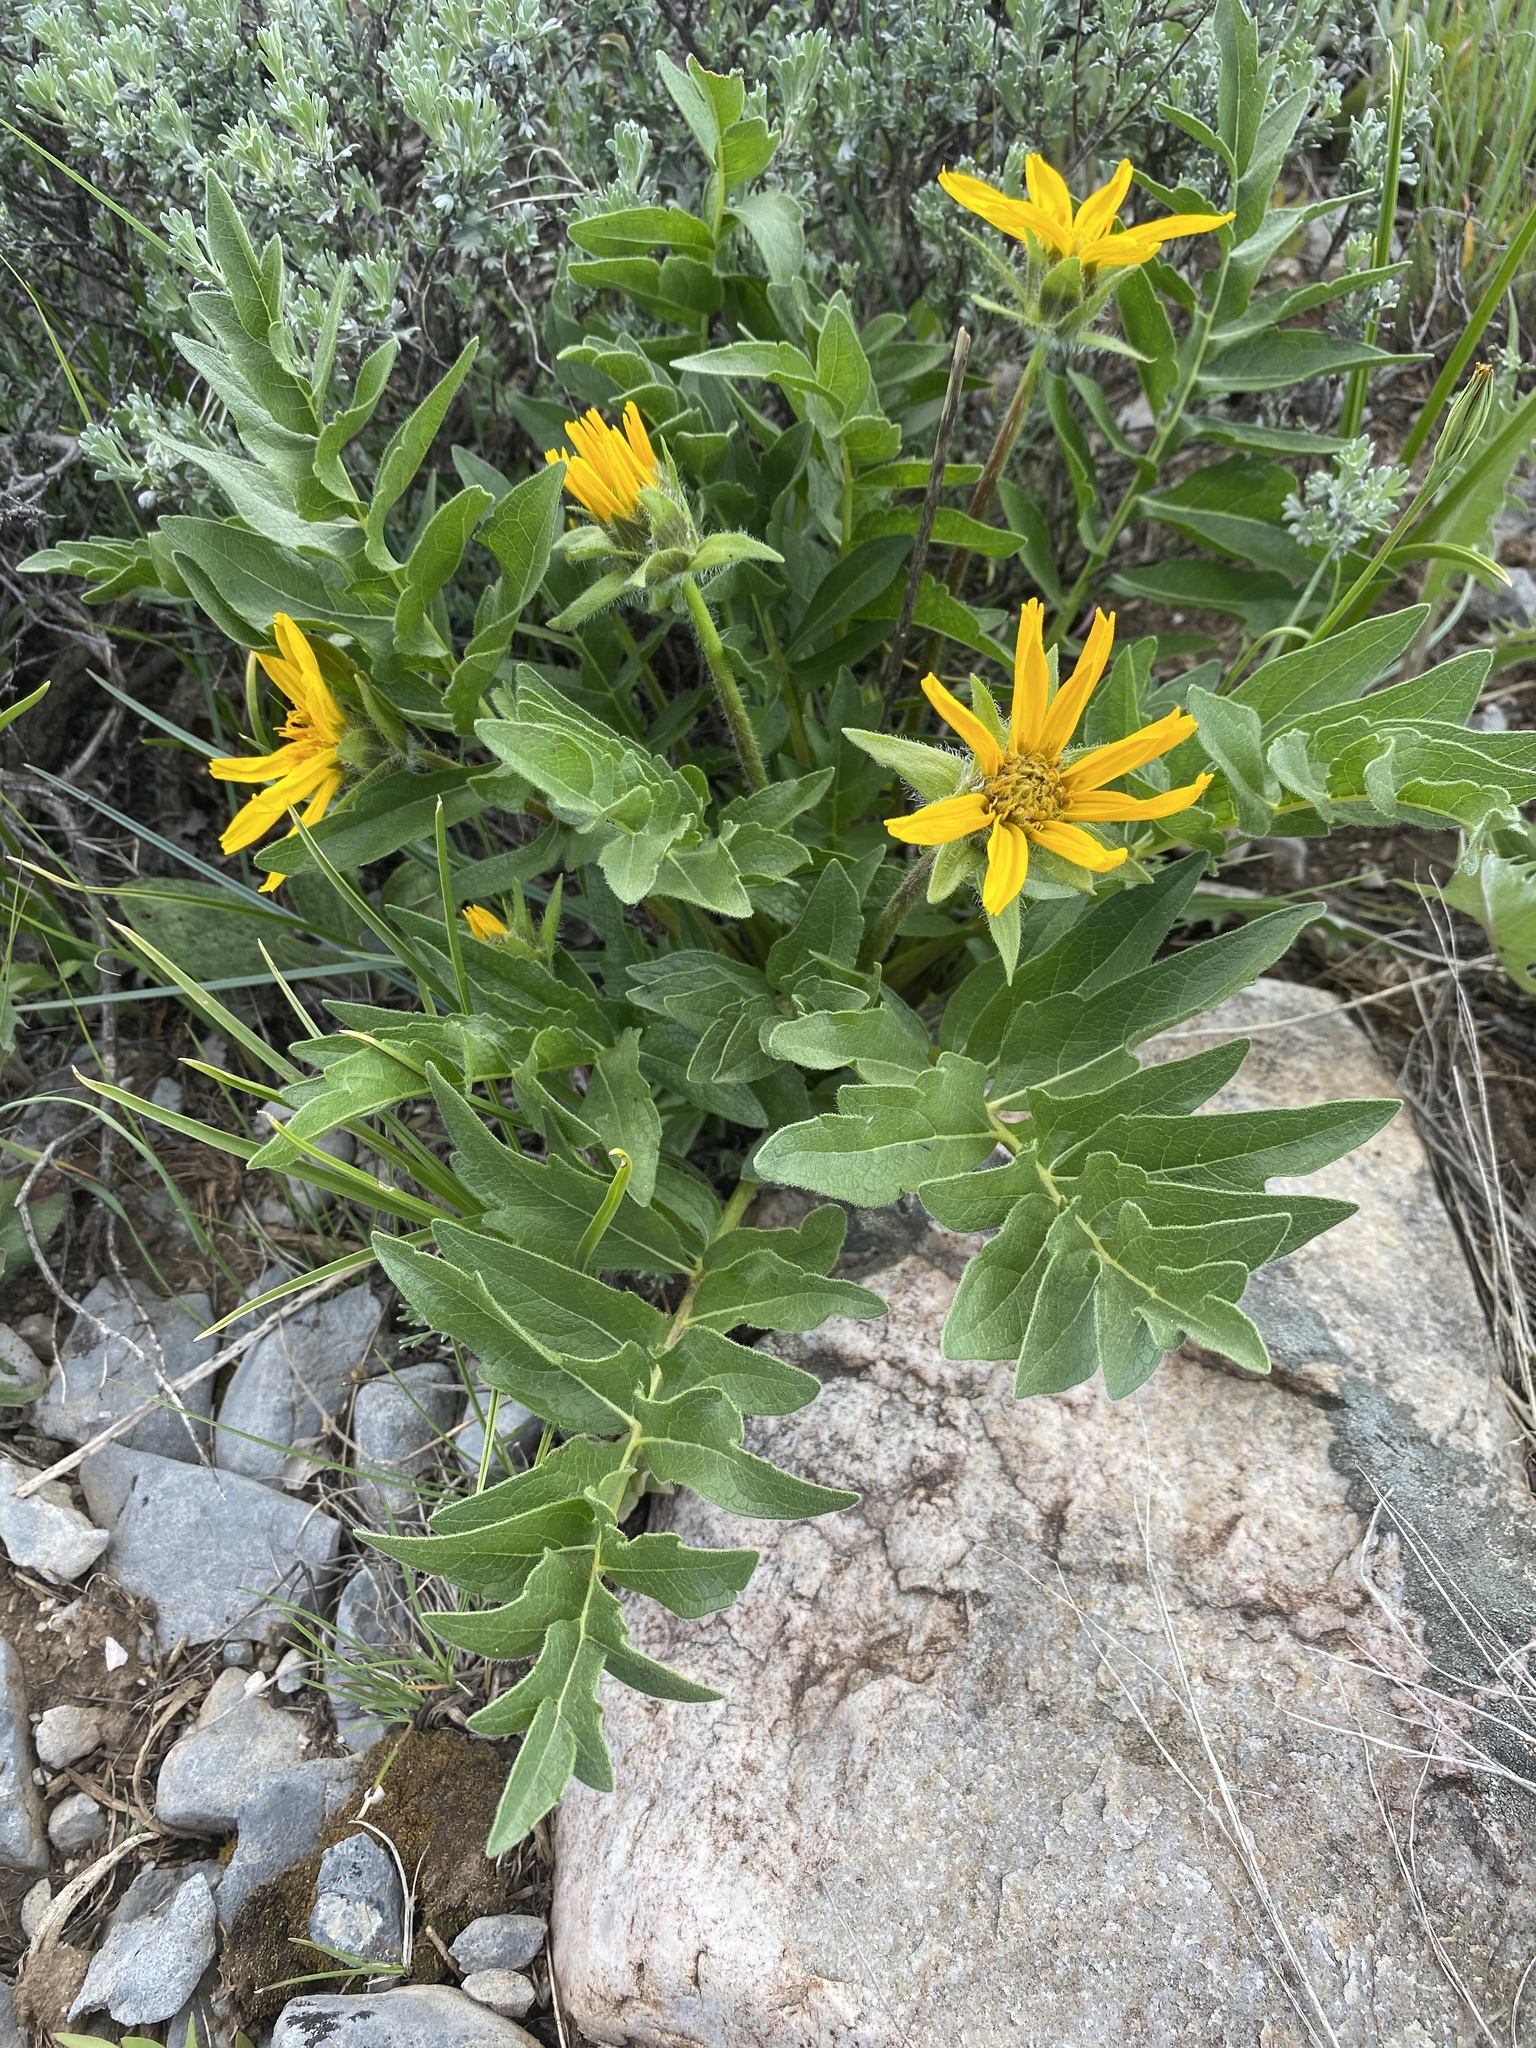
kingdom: Plantae
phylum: Tracheophyta
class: Magnoliopsida
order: Asterales
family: Asteraceae
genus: Balsamorhiza
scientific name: Balsamorhiza macrophylla
